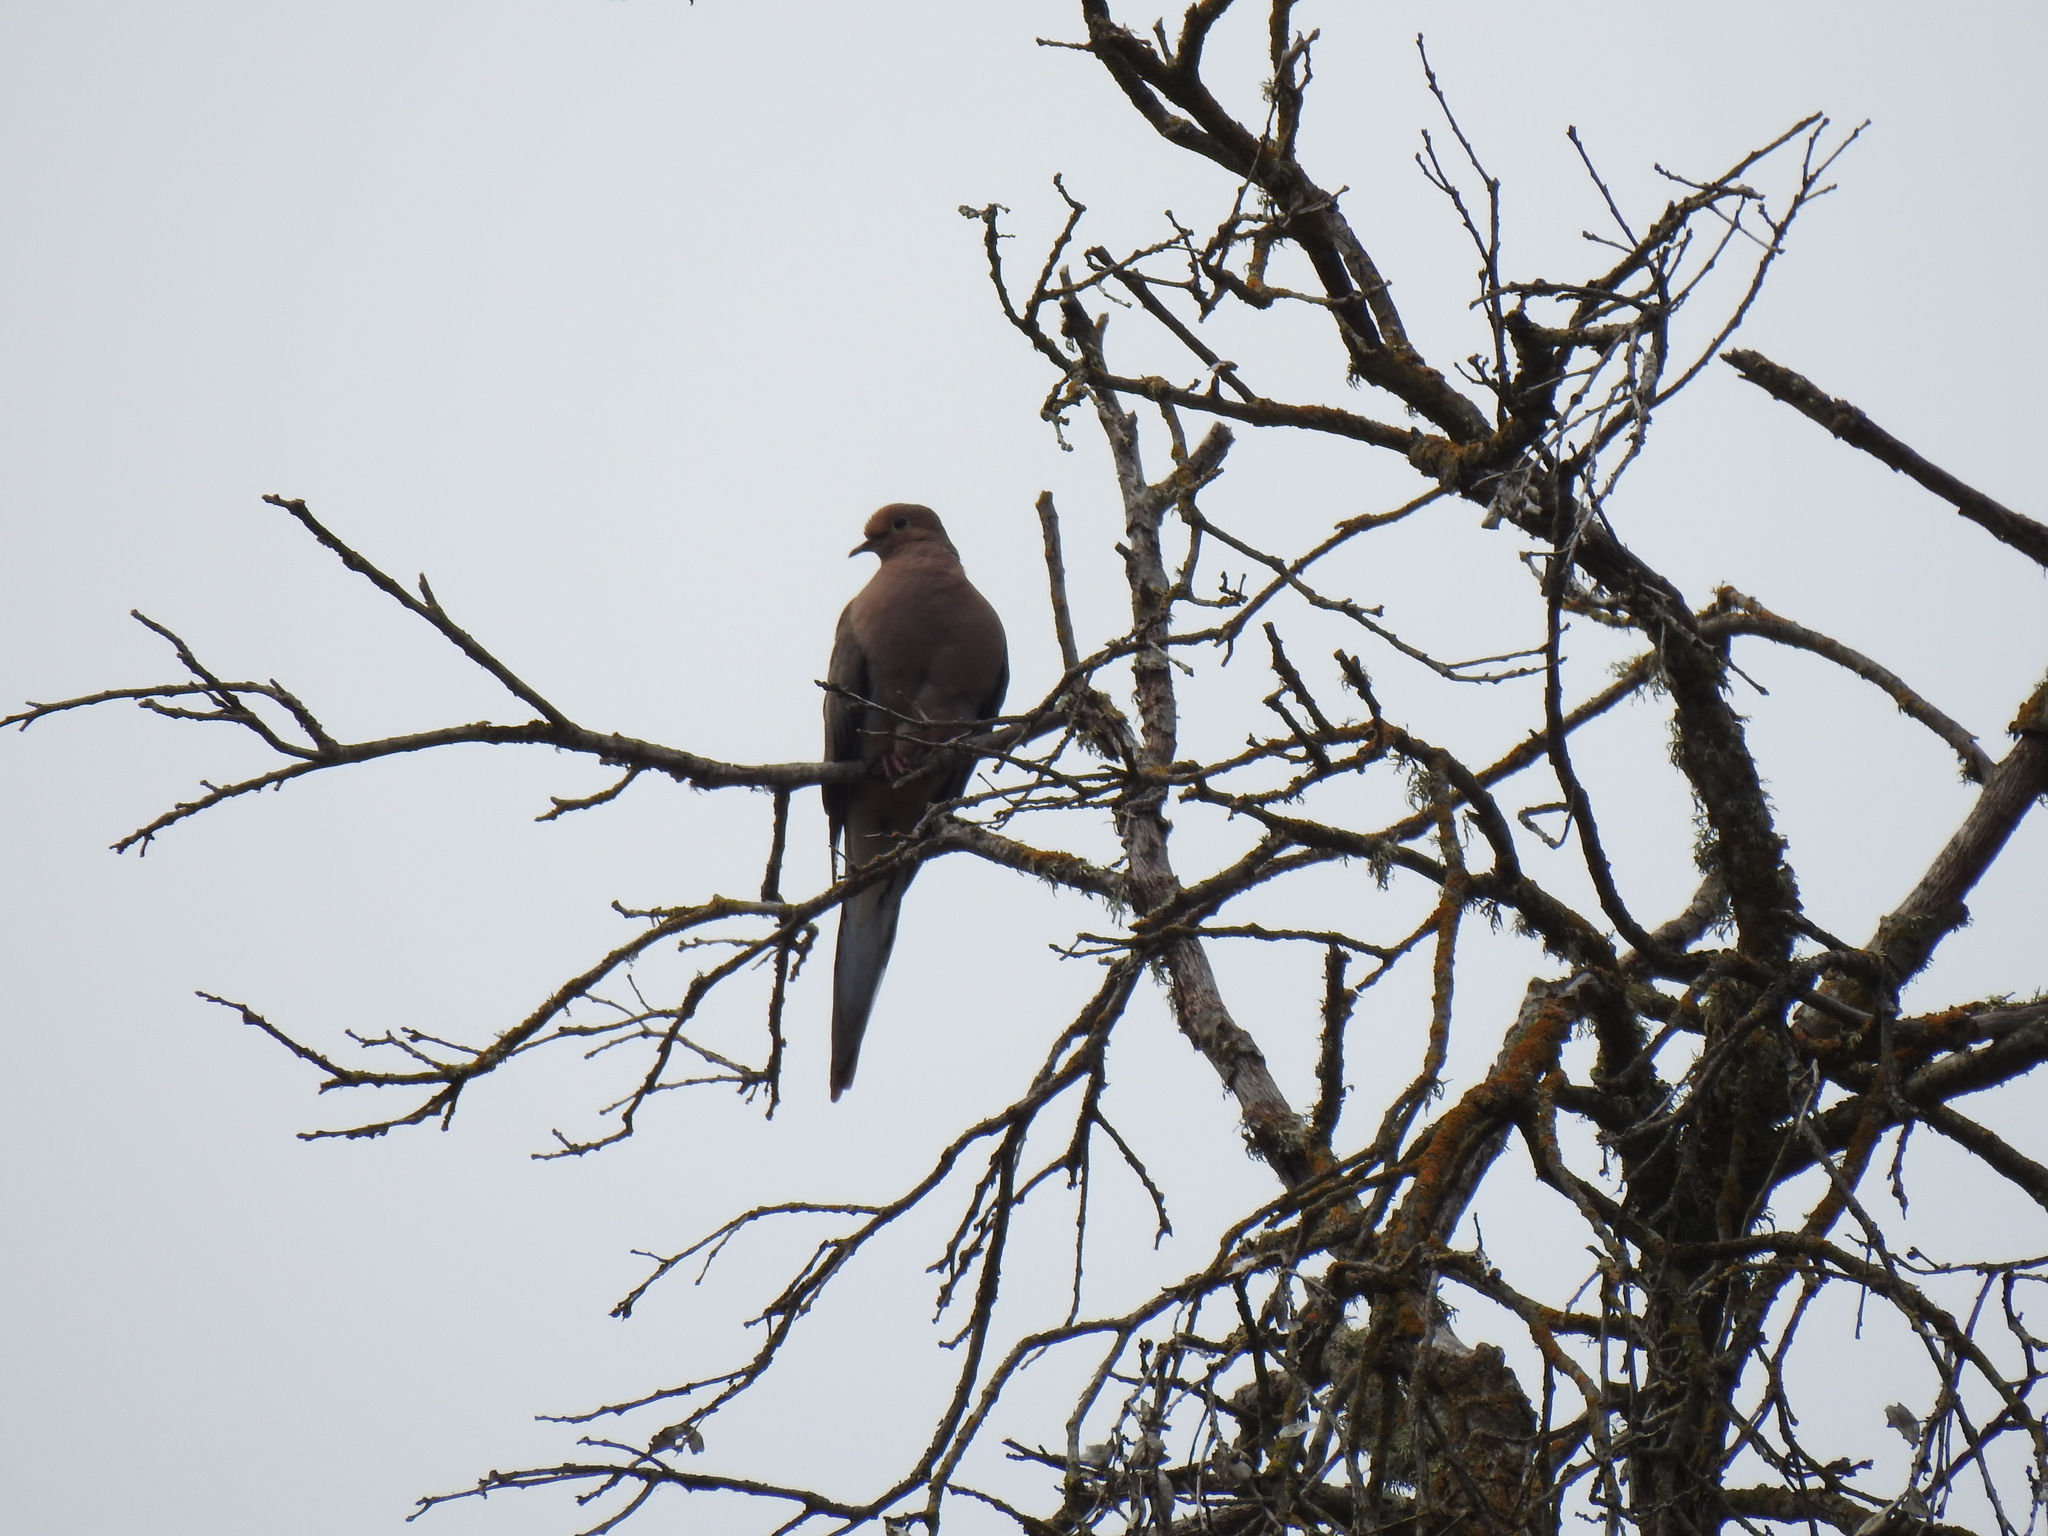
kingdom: Animalia
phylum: Chordata
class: Aves
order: Columbiformes
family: Columbidae
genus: Zenaida
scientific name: Zenaida macroura
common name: Mourning dove
